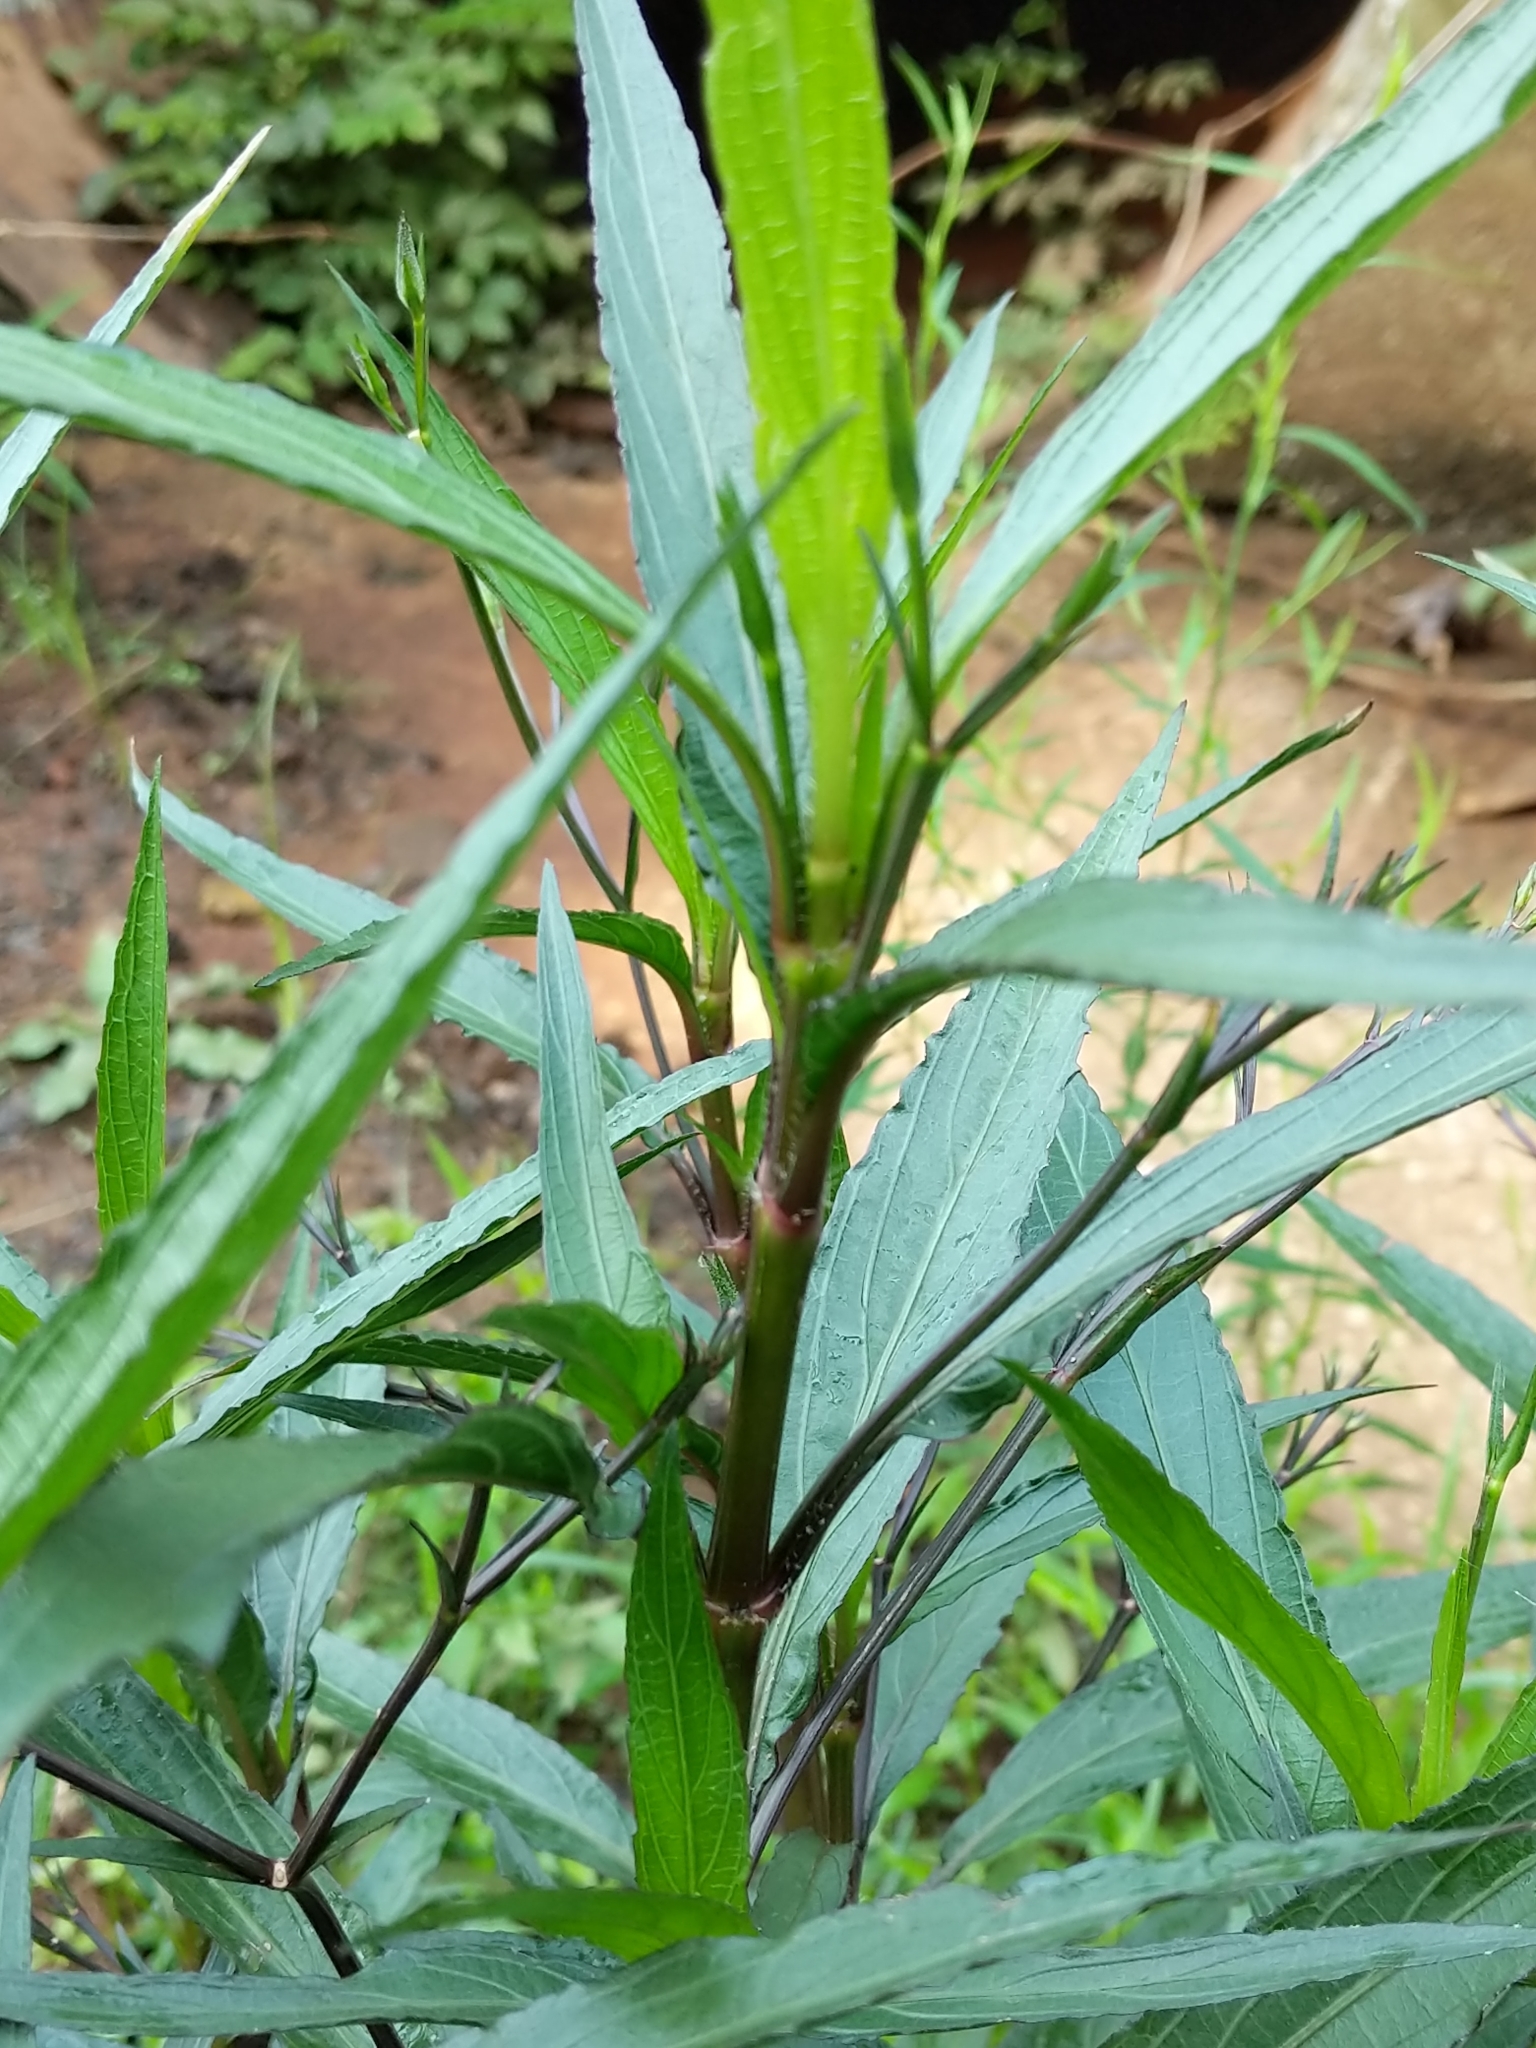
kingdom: Plantae
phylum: Tracheophyta
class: Magnoliopsida
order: Lamiales
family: Acanthaceae
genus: Ruellia
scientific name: Ruellia simplex
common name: Softseed wild petunia
